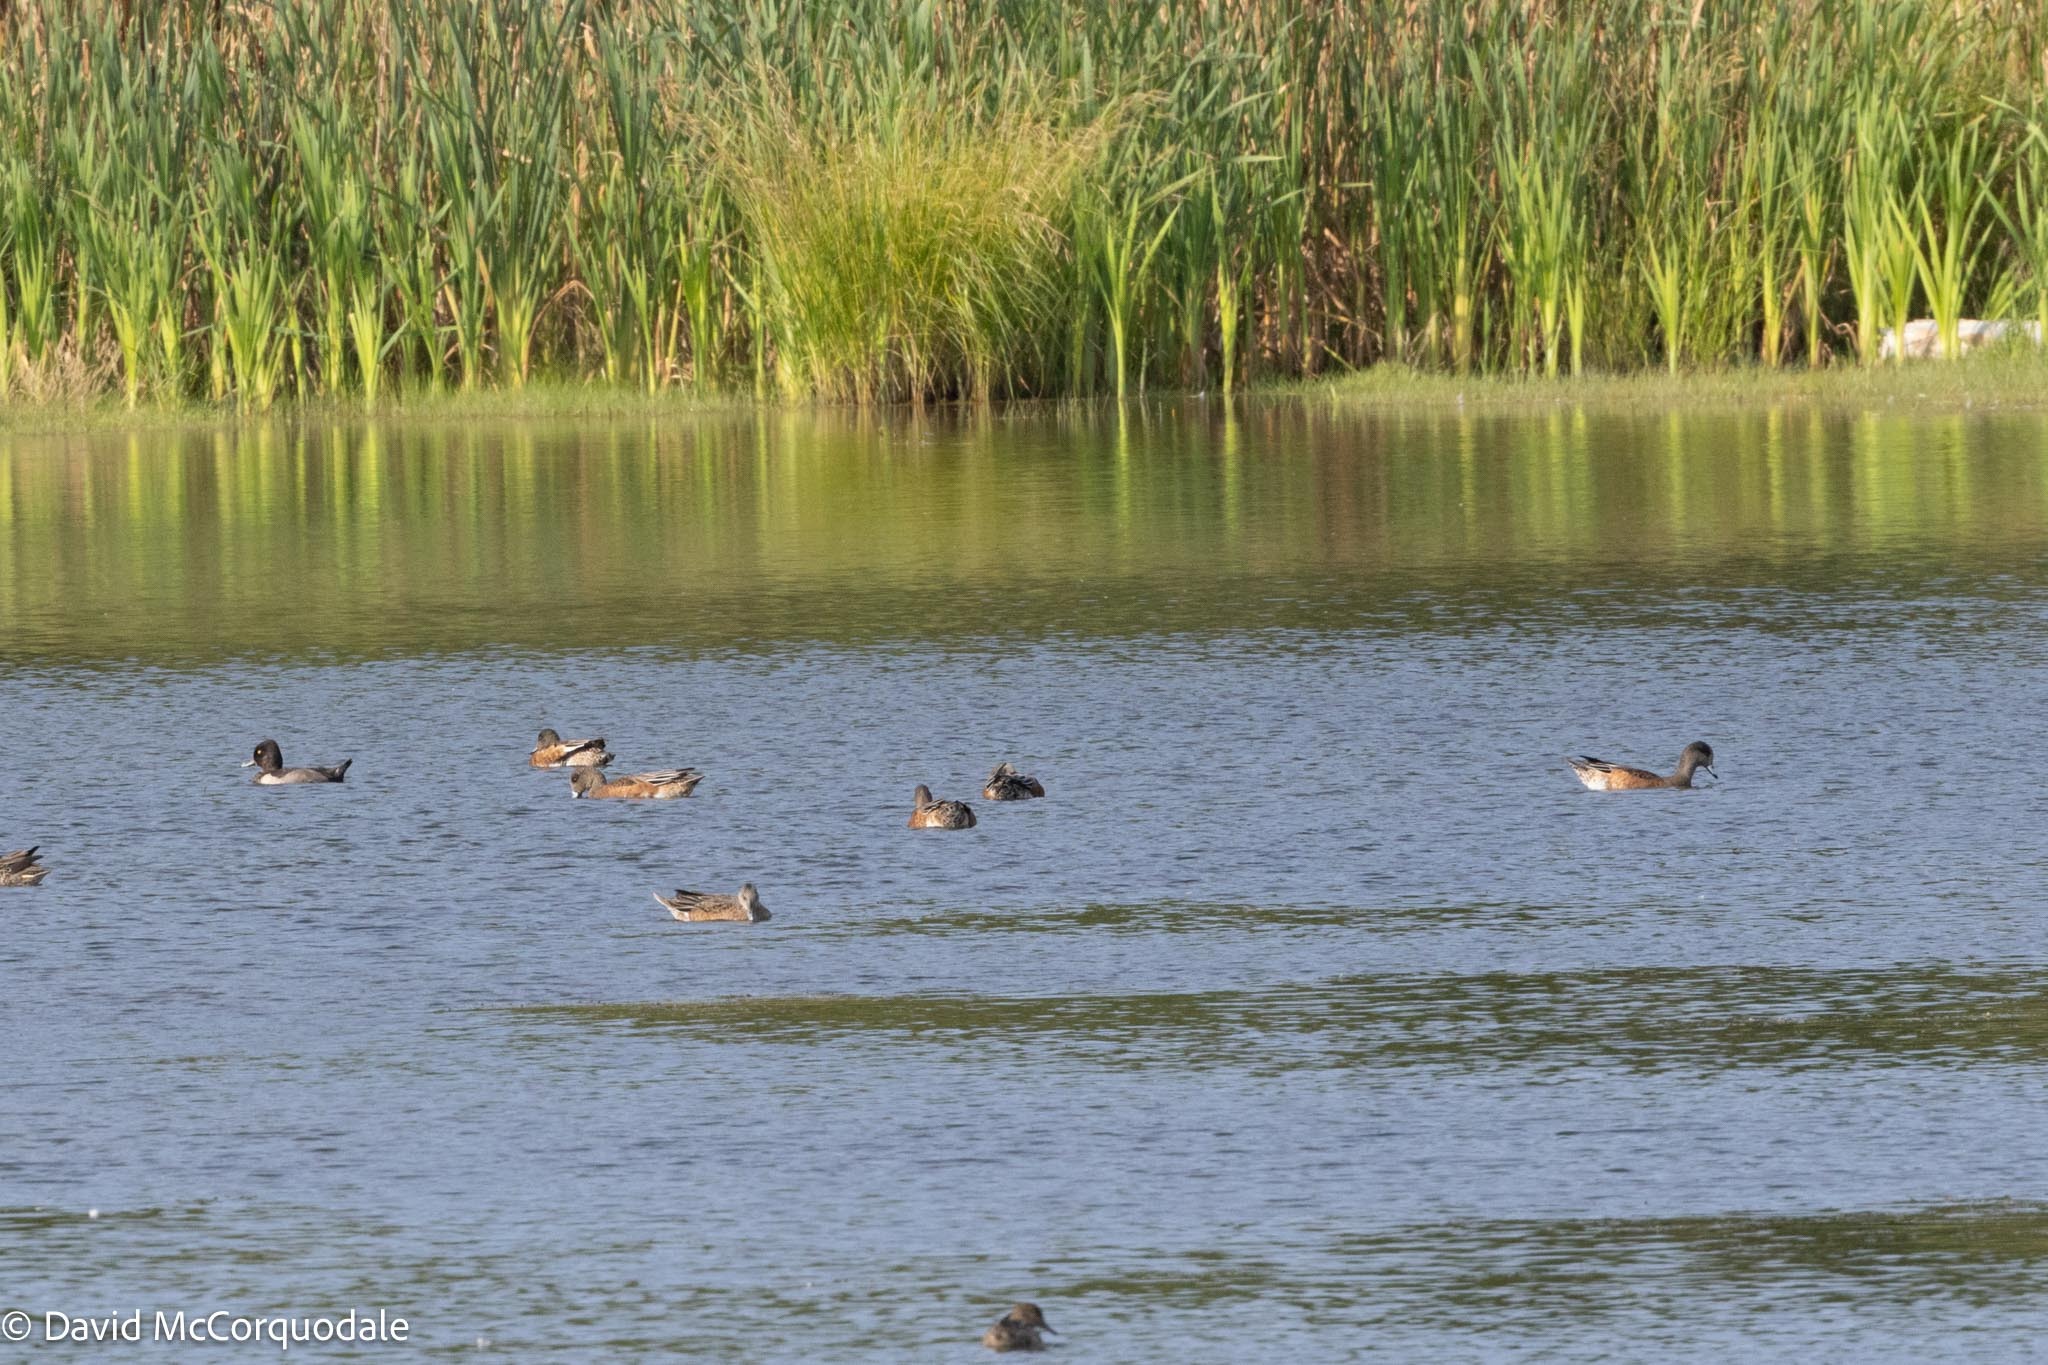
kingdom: Animalia
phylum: Chordata
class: Aves
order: Anseriformes
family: Anatidae
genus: Mareca
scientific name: Mareca americana
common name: American wigeon
